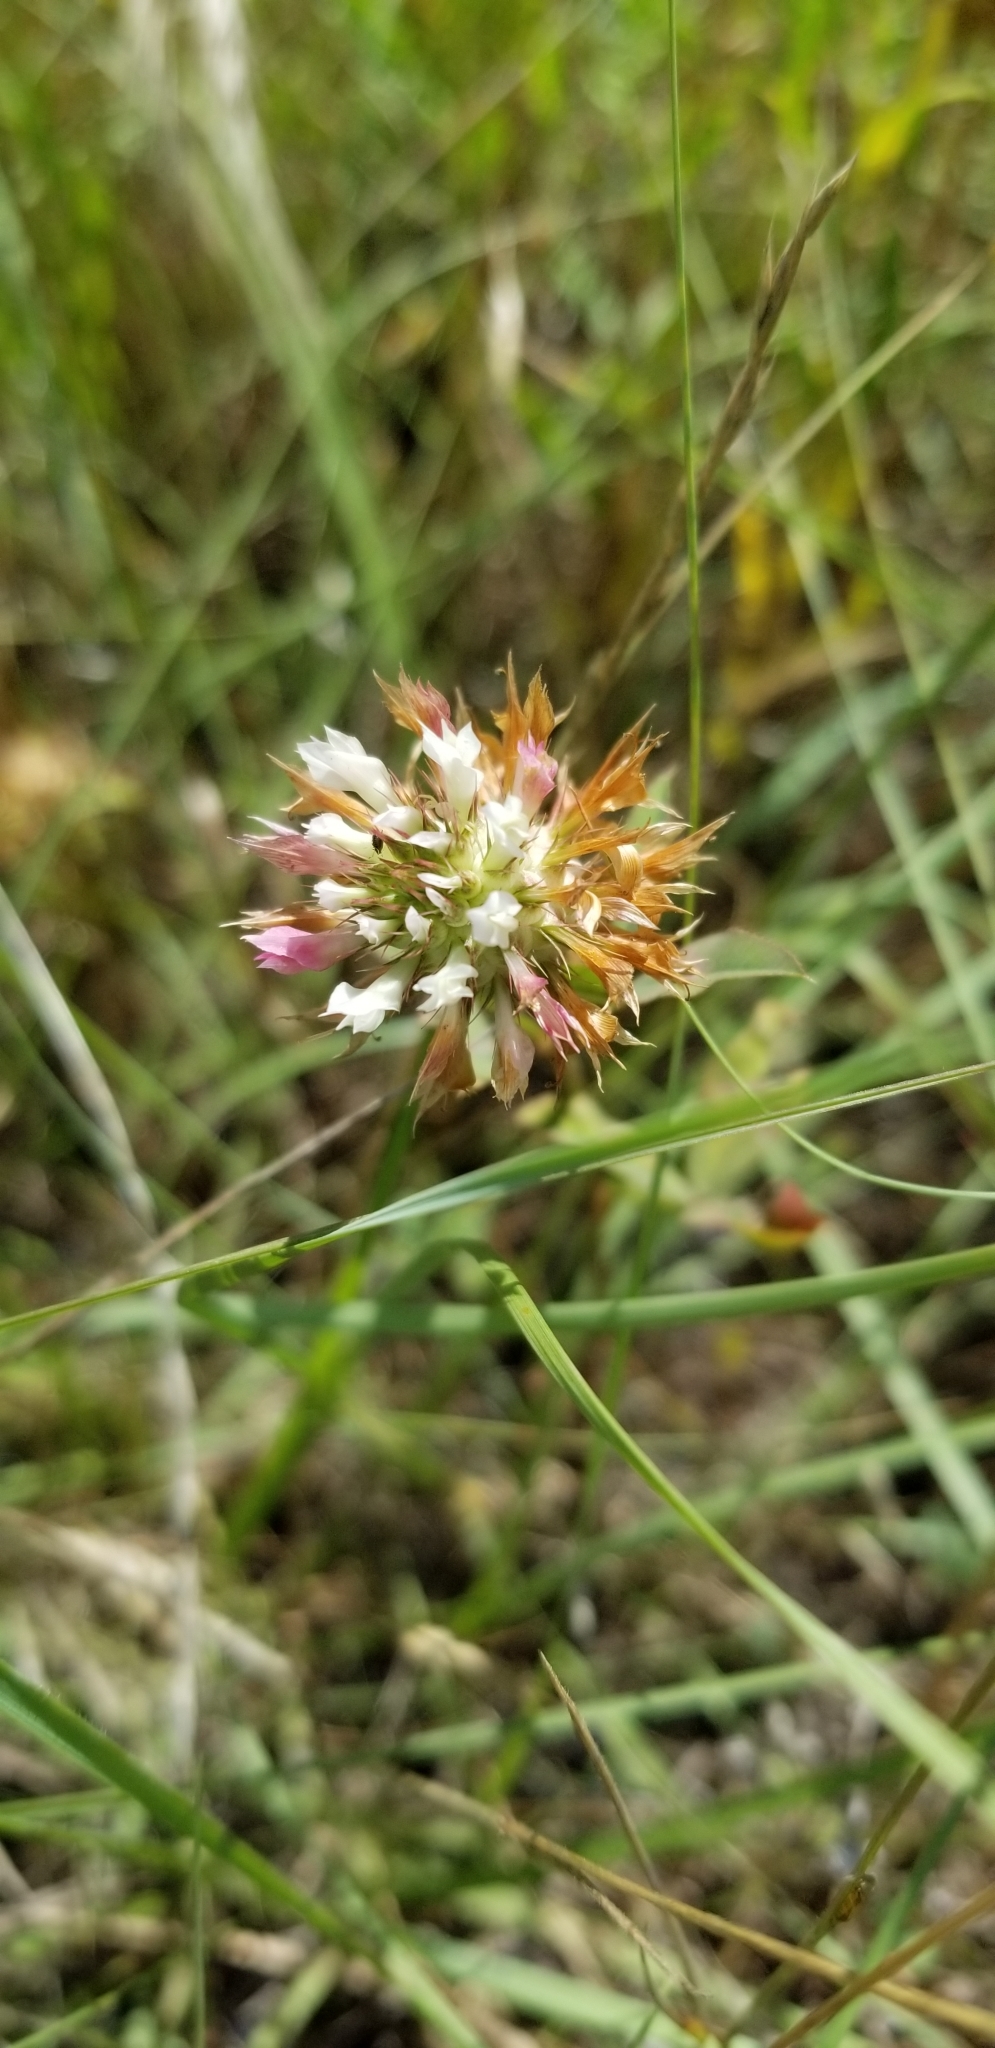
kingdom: Plantae
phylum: Tracheophyta
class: Magnoliopsida
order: Fabales
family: Fabaceae
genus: Trifolium
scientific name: Trifolium vesiculosum
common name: Arrowleaf clover
